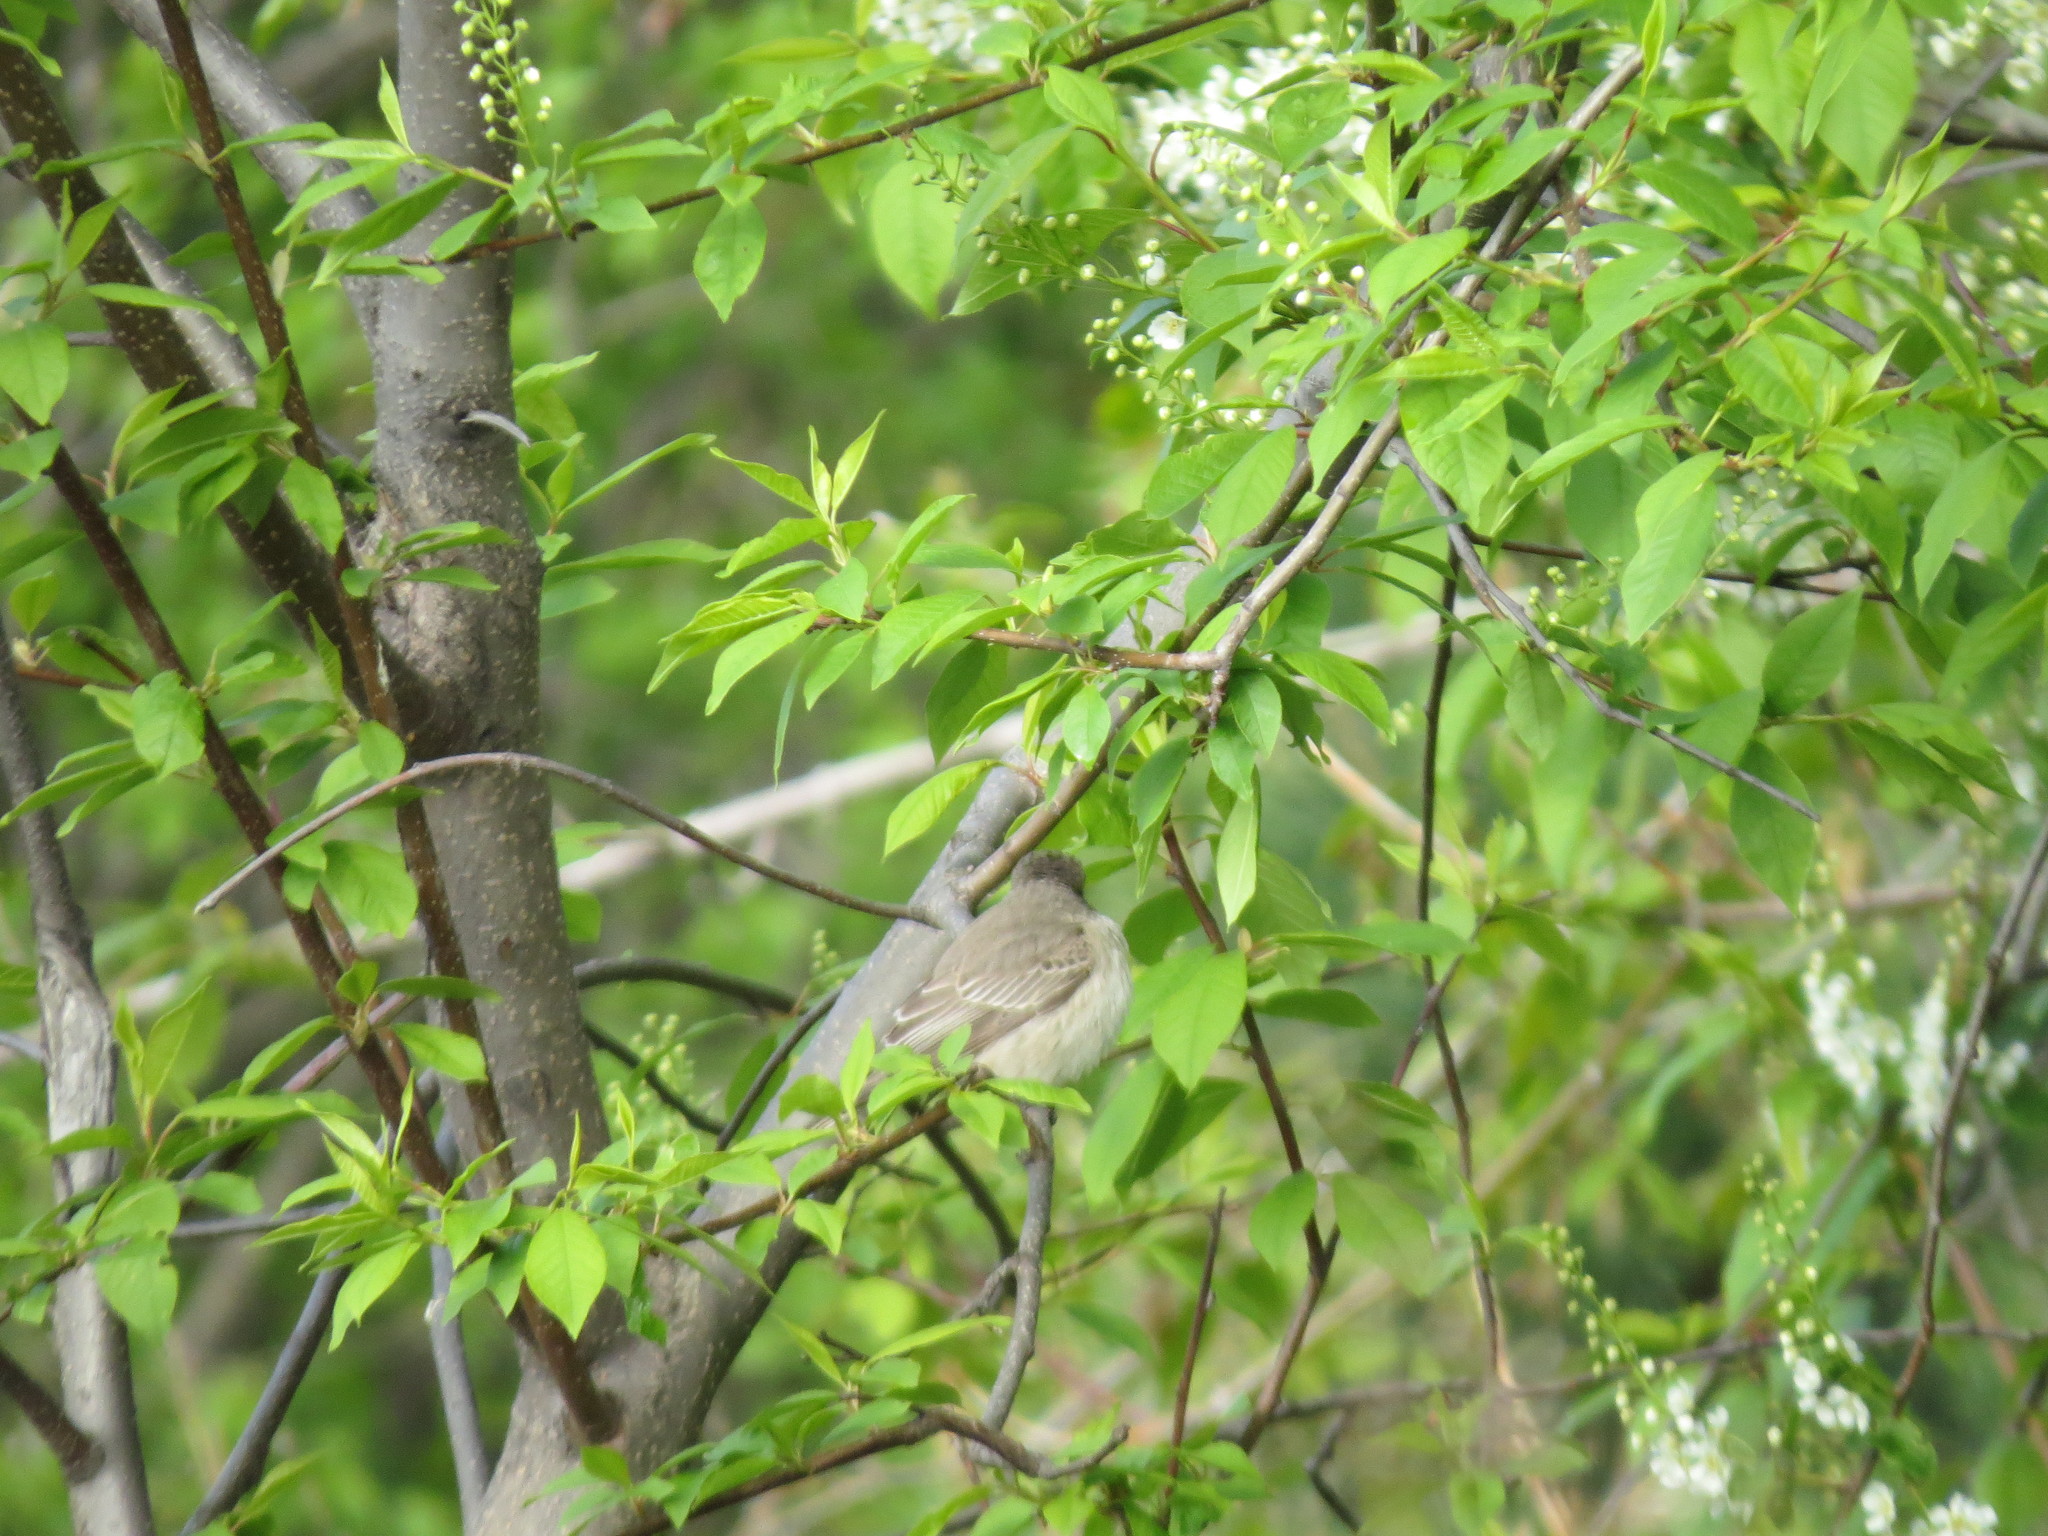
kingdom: Animalia
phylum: Chordata
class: Aves
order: Passeriformes
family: Muscicapidae
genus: Muscicapa
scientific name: Muscicapa striata
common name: Spotted flycatcher
